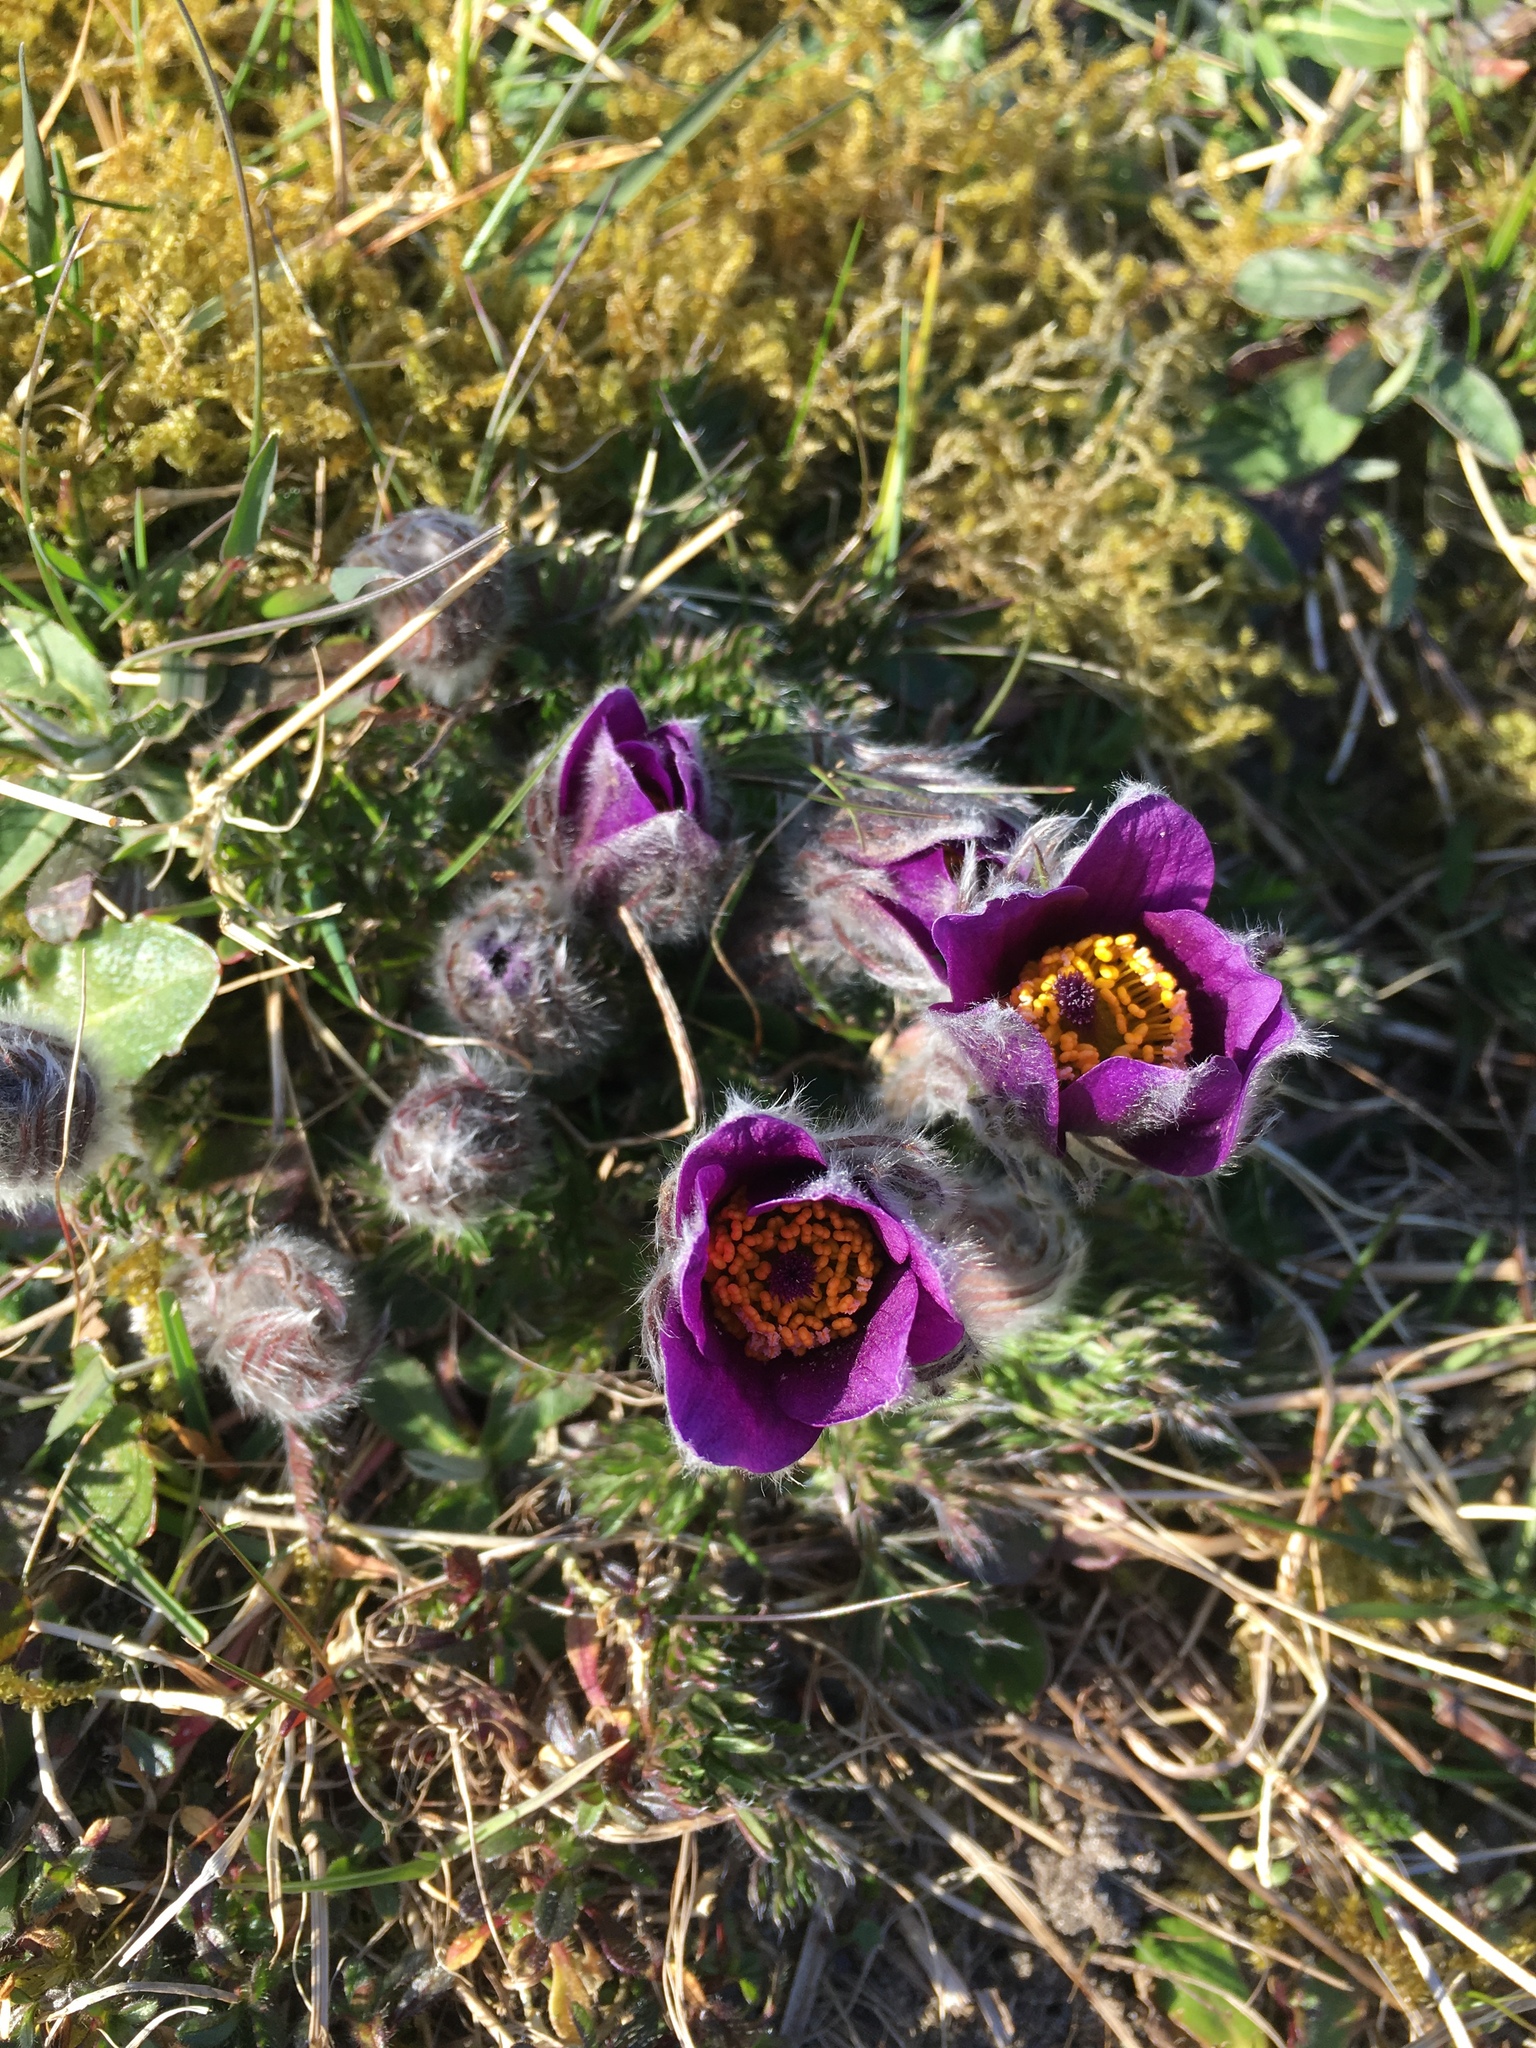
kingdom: Plantae
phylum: Tracheophyta
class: Magnoliopsida
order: Ranunculales
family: Ranunculaceae
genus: Pulsatilla
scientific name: Pulsatilla vulgaris
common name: Pasqueflower
